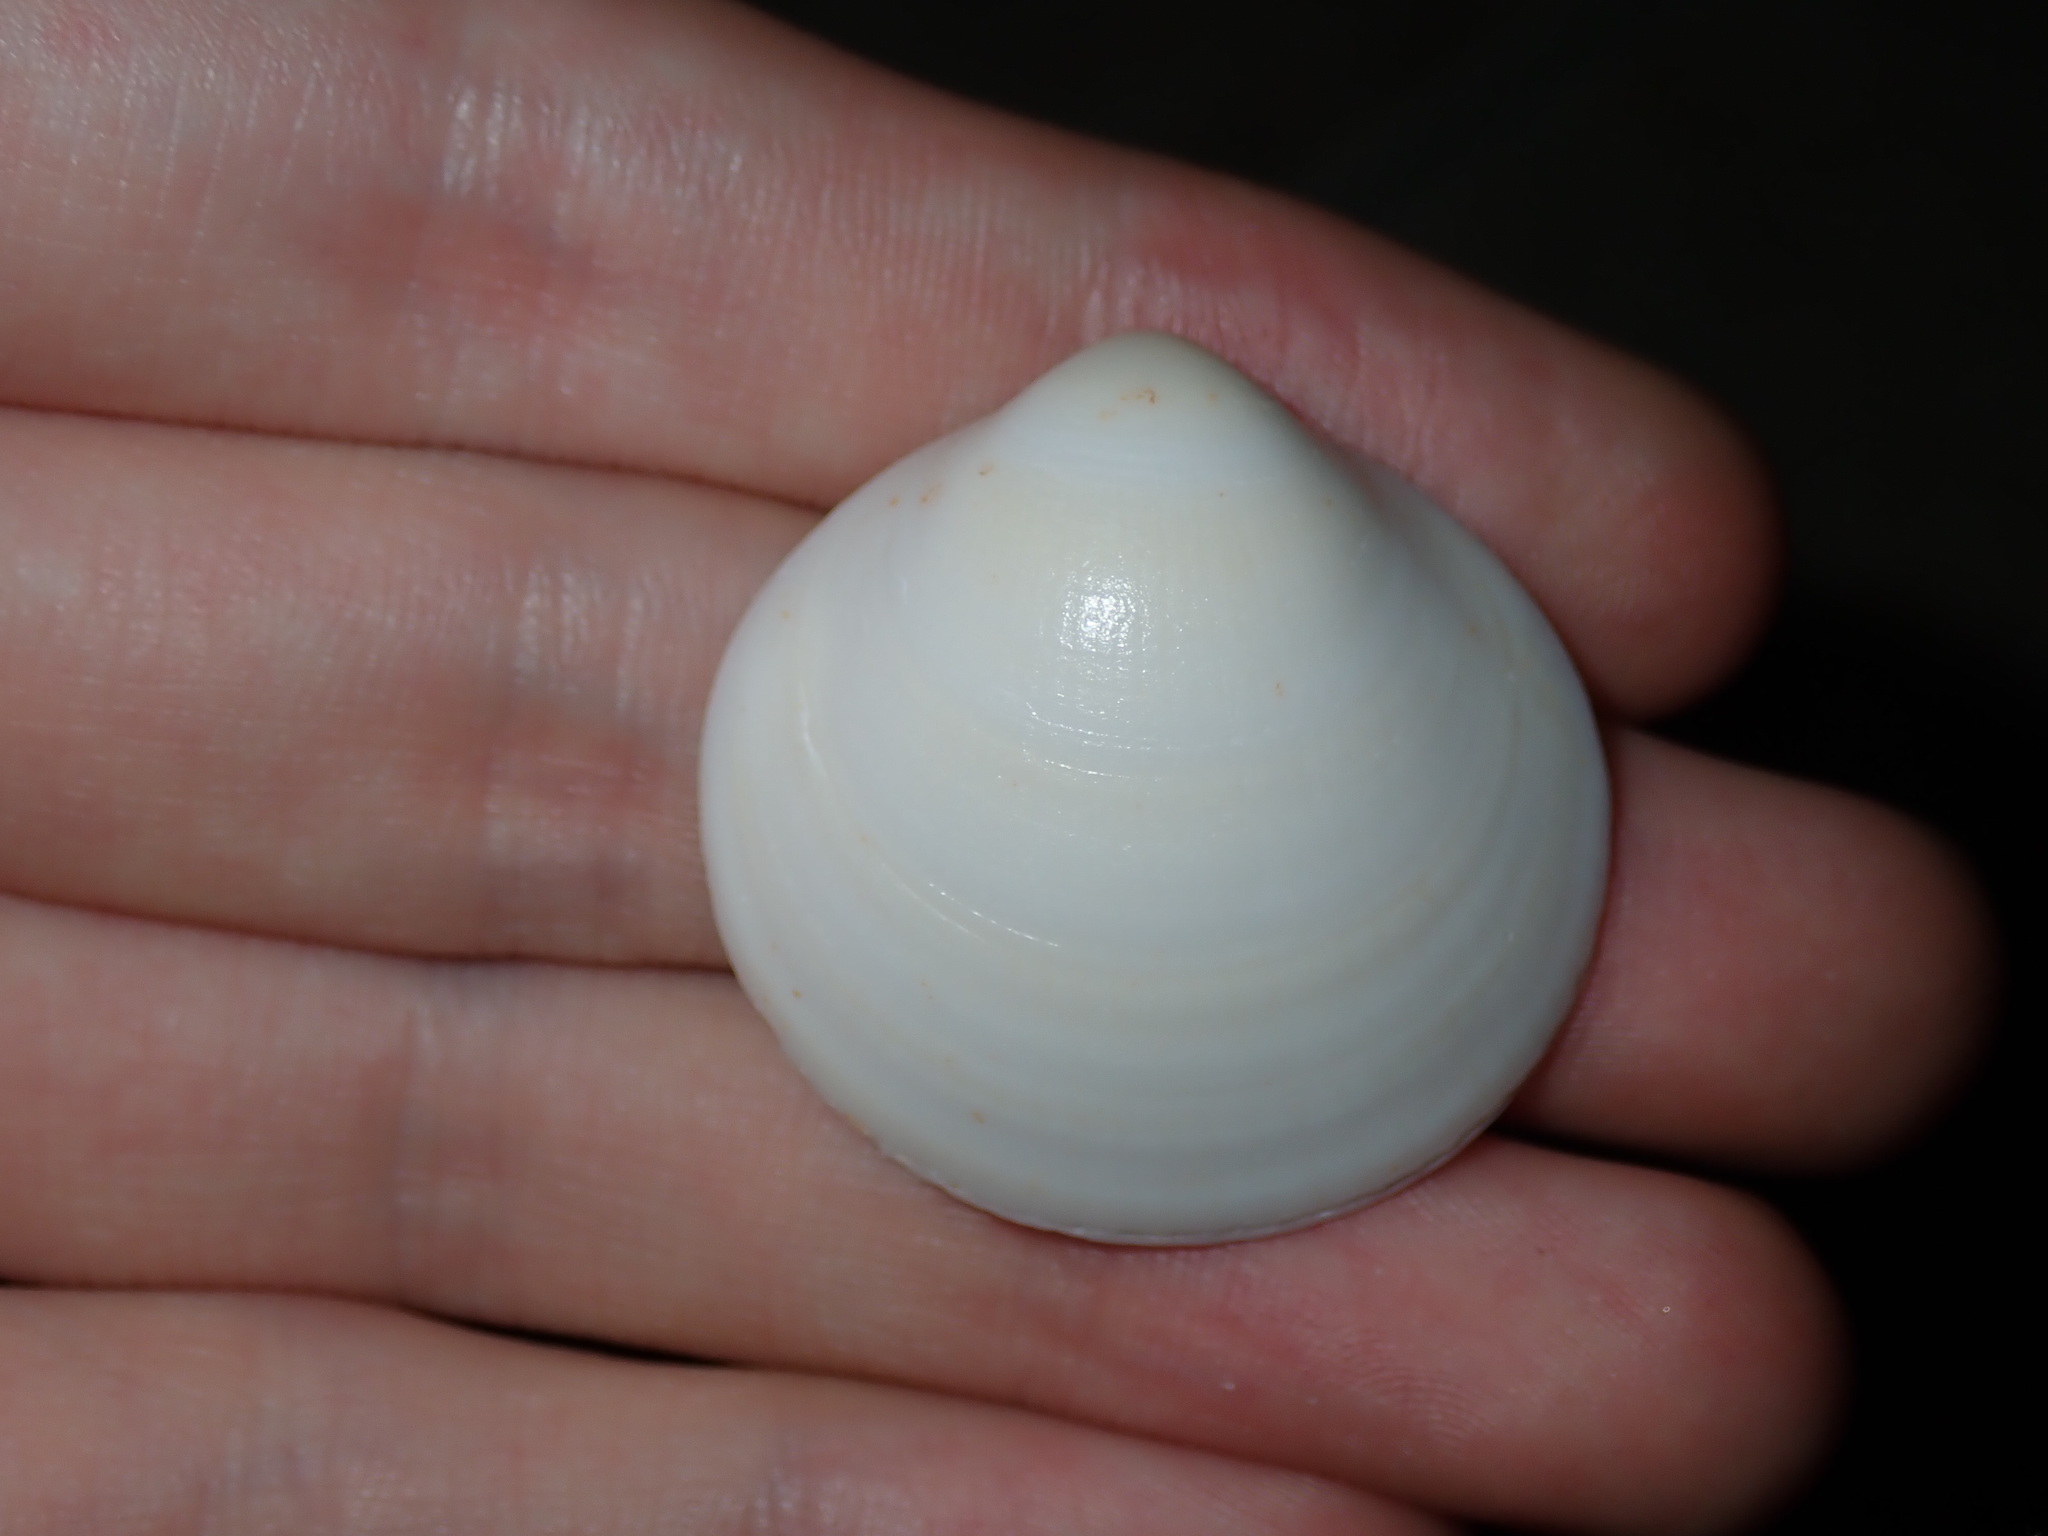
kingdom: Animalia
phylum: Mollusca
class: Bivalvia
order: Arcida
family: Glycymerididae
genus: Glycymeris
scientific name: Glycymeris holoserica
